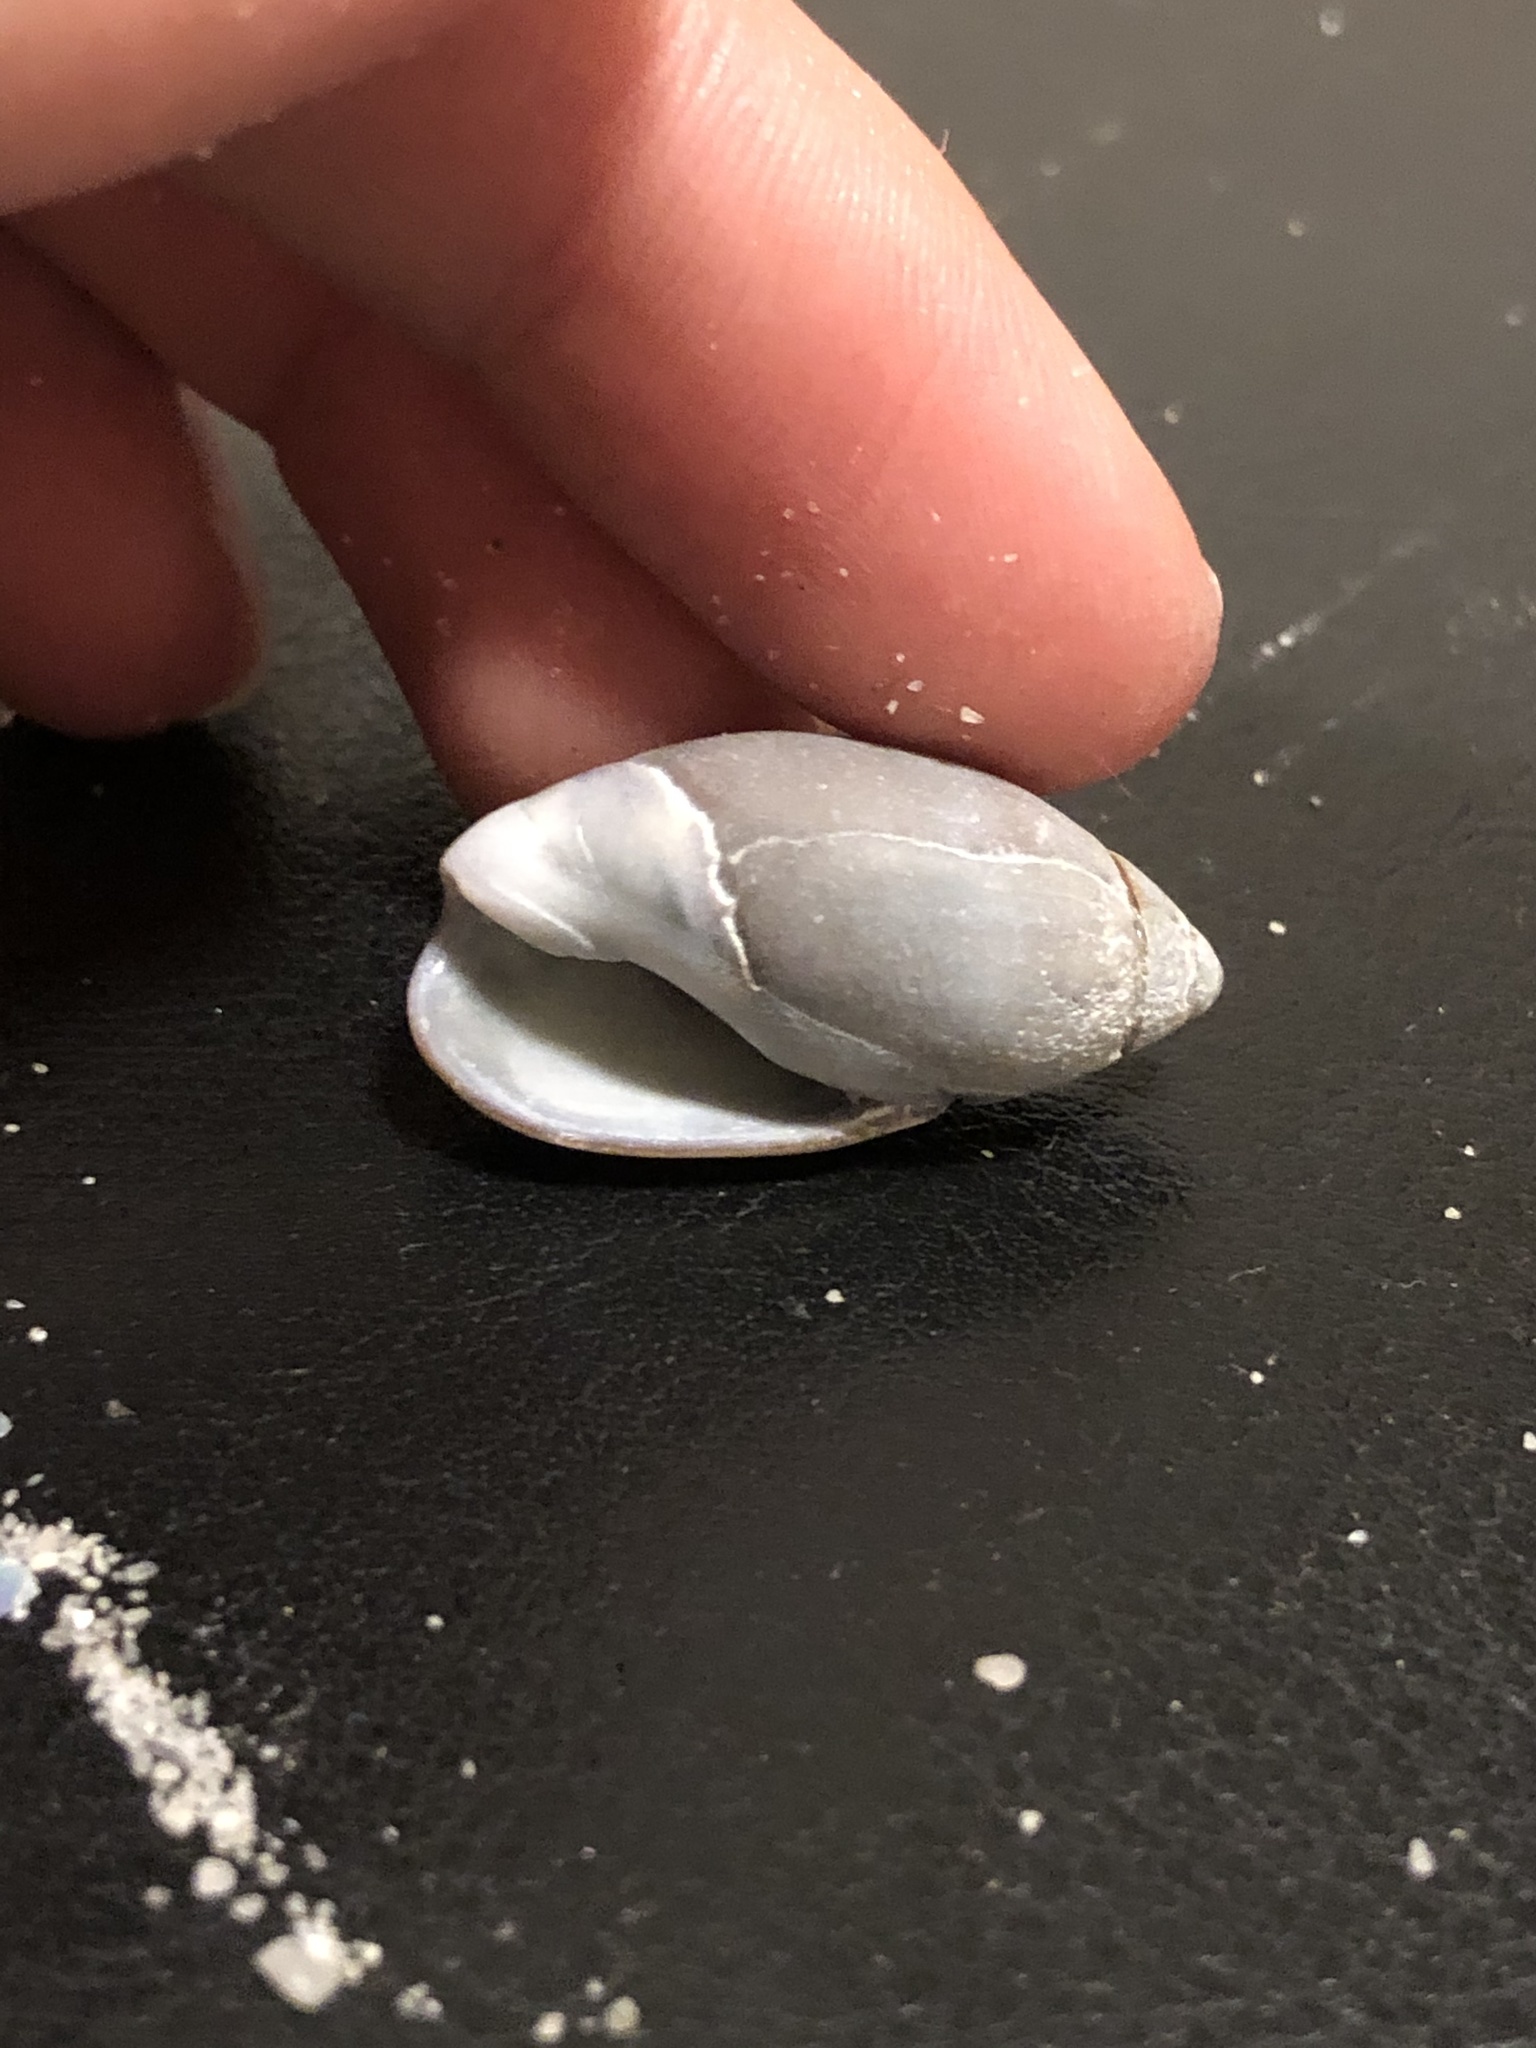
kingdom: Animalia
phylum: Mollusca
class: Gastropoda
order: Neogastropoda
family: Olividae
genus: Callianax
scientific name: Callianax biplicata
